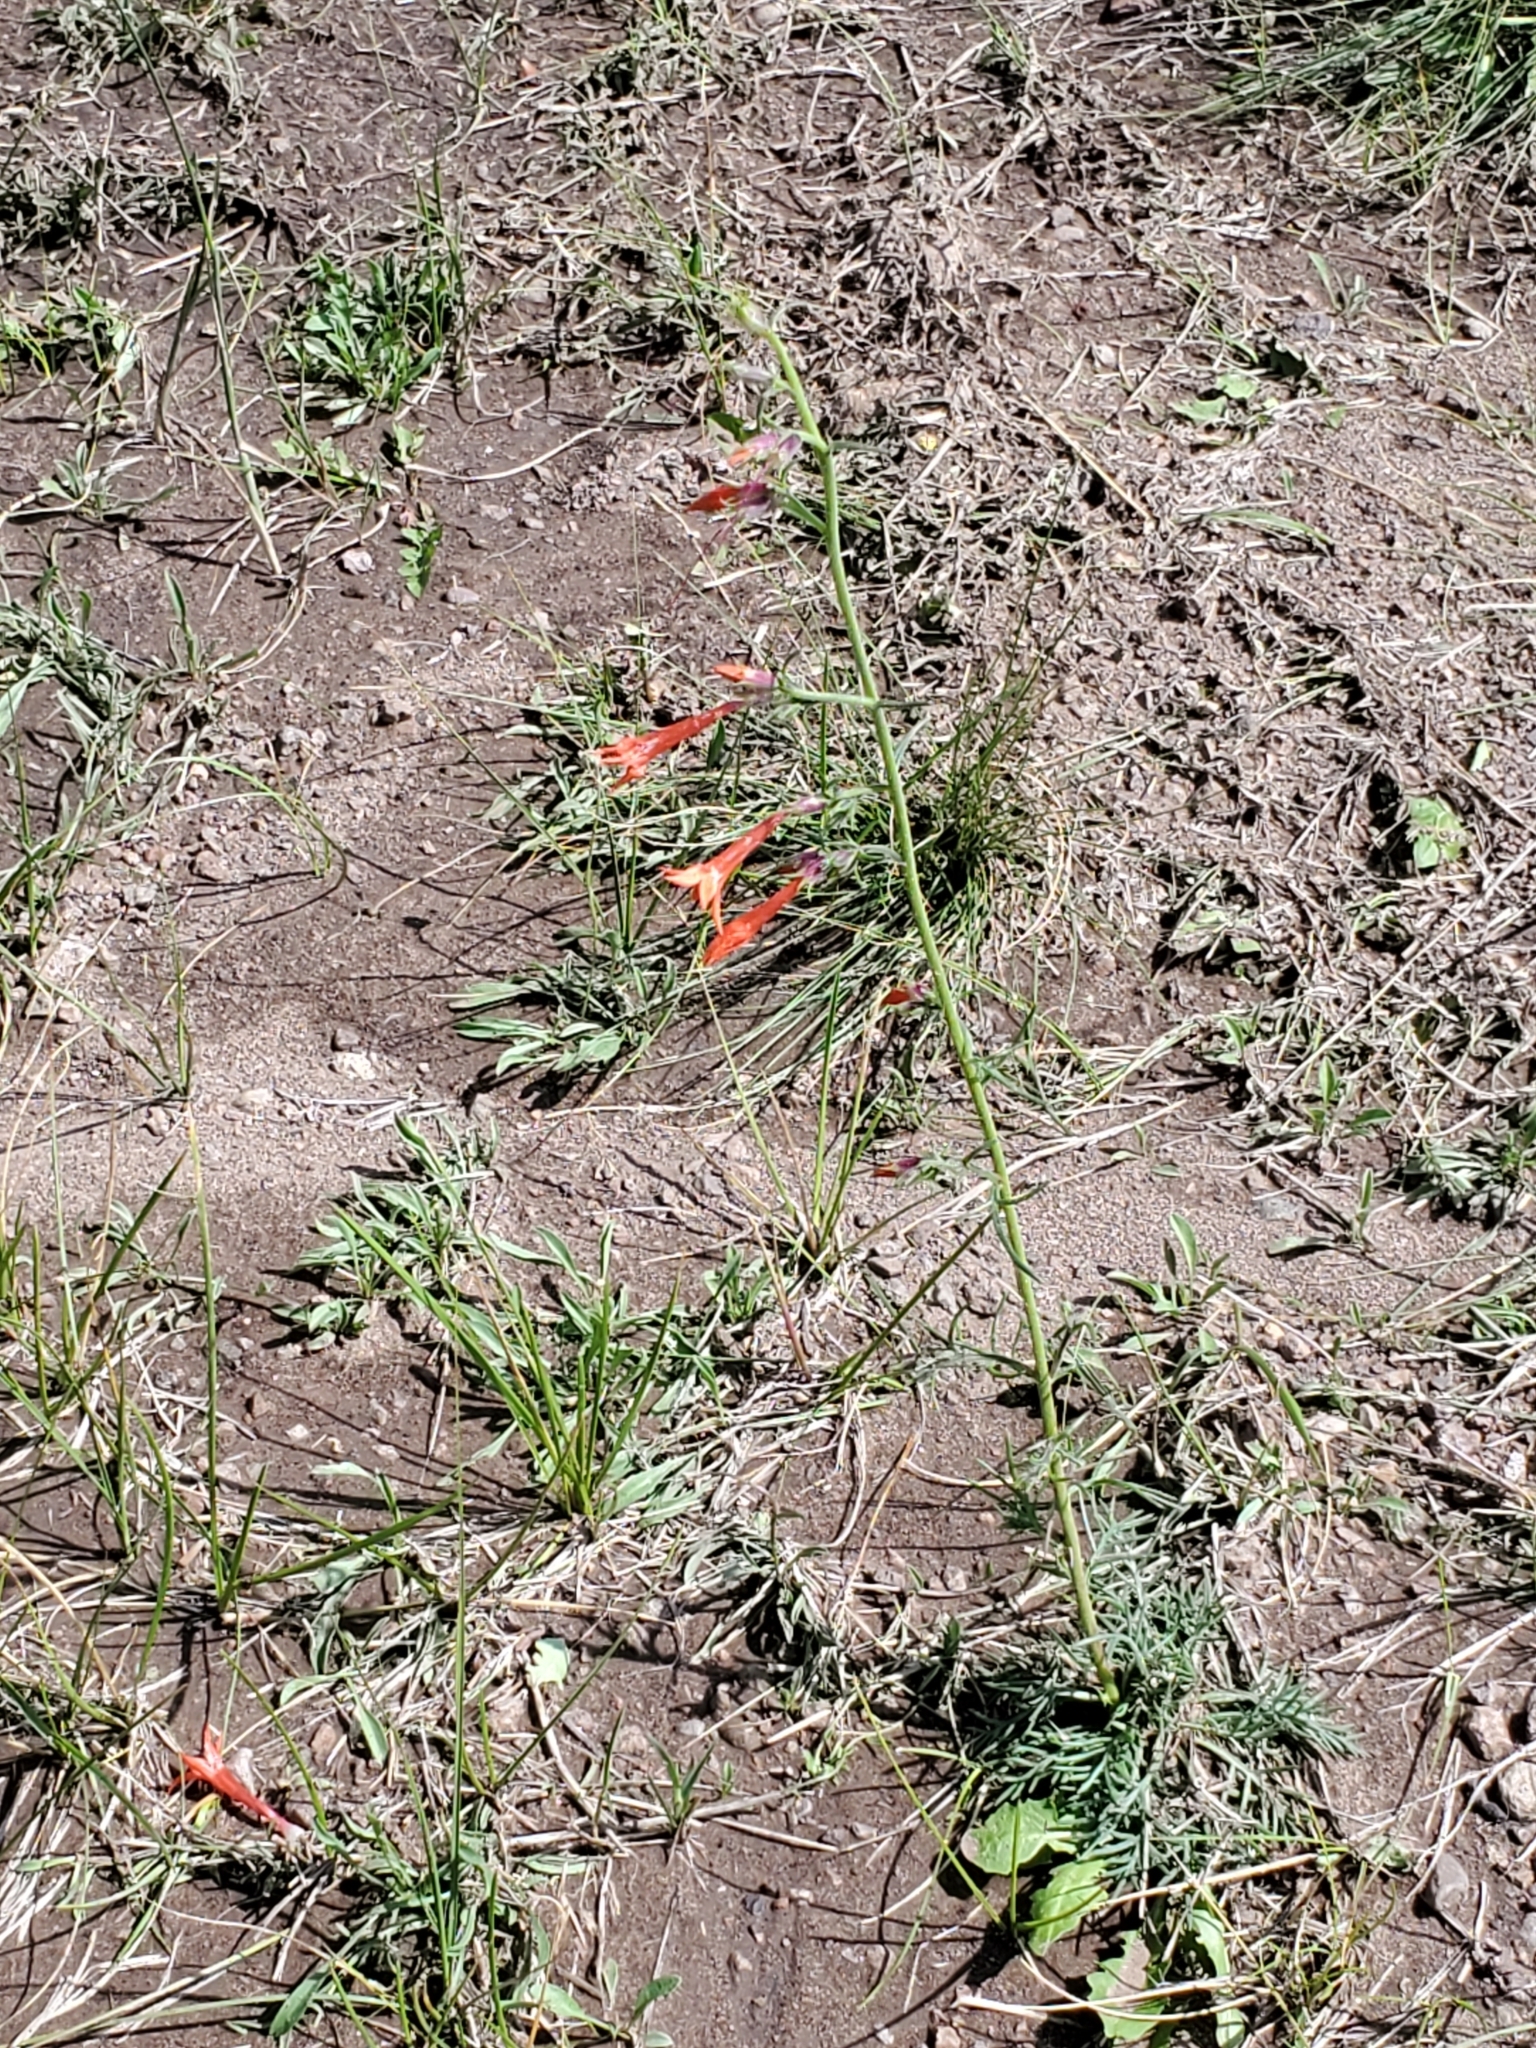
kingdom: Plantae
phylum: Tracheophyta
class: Magnoliopsida
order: Ericales
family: Polemoniaceae
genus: Ipomopsis
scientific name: Ipomopsis aggregata
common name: Scarlet gilia
